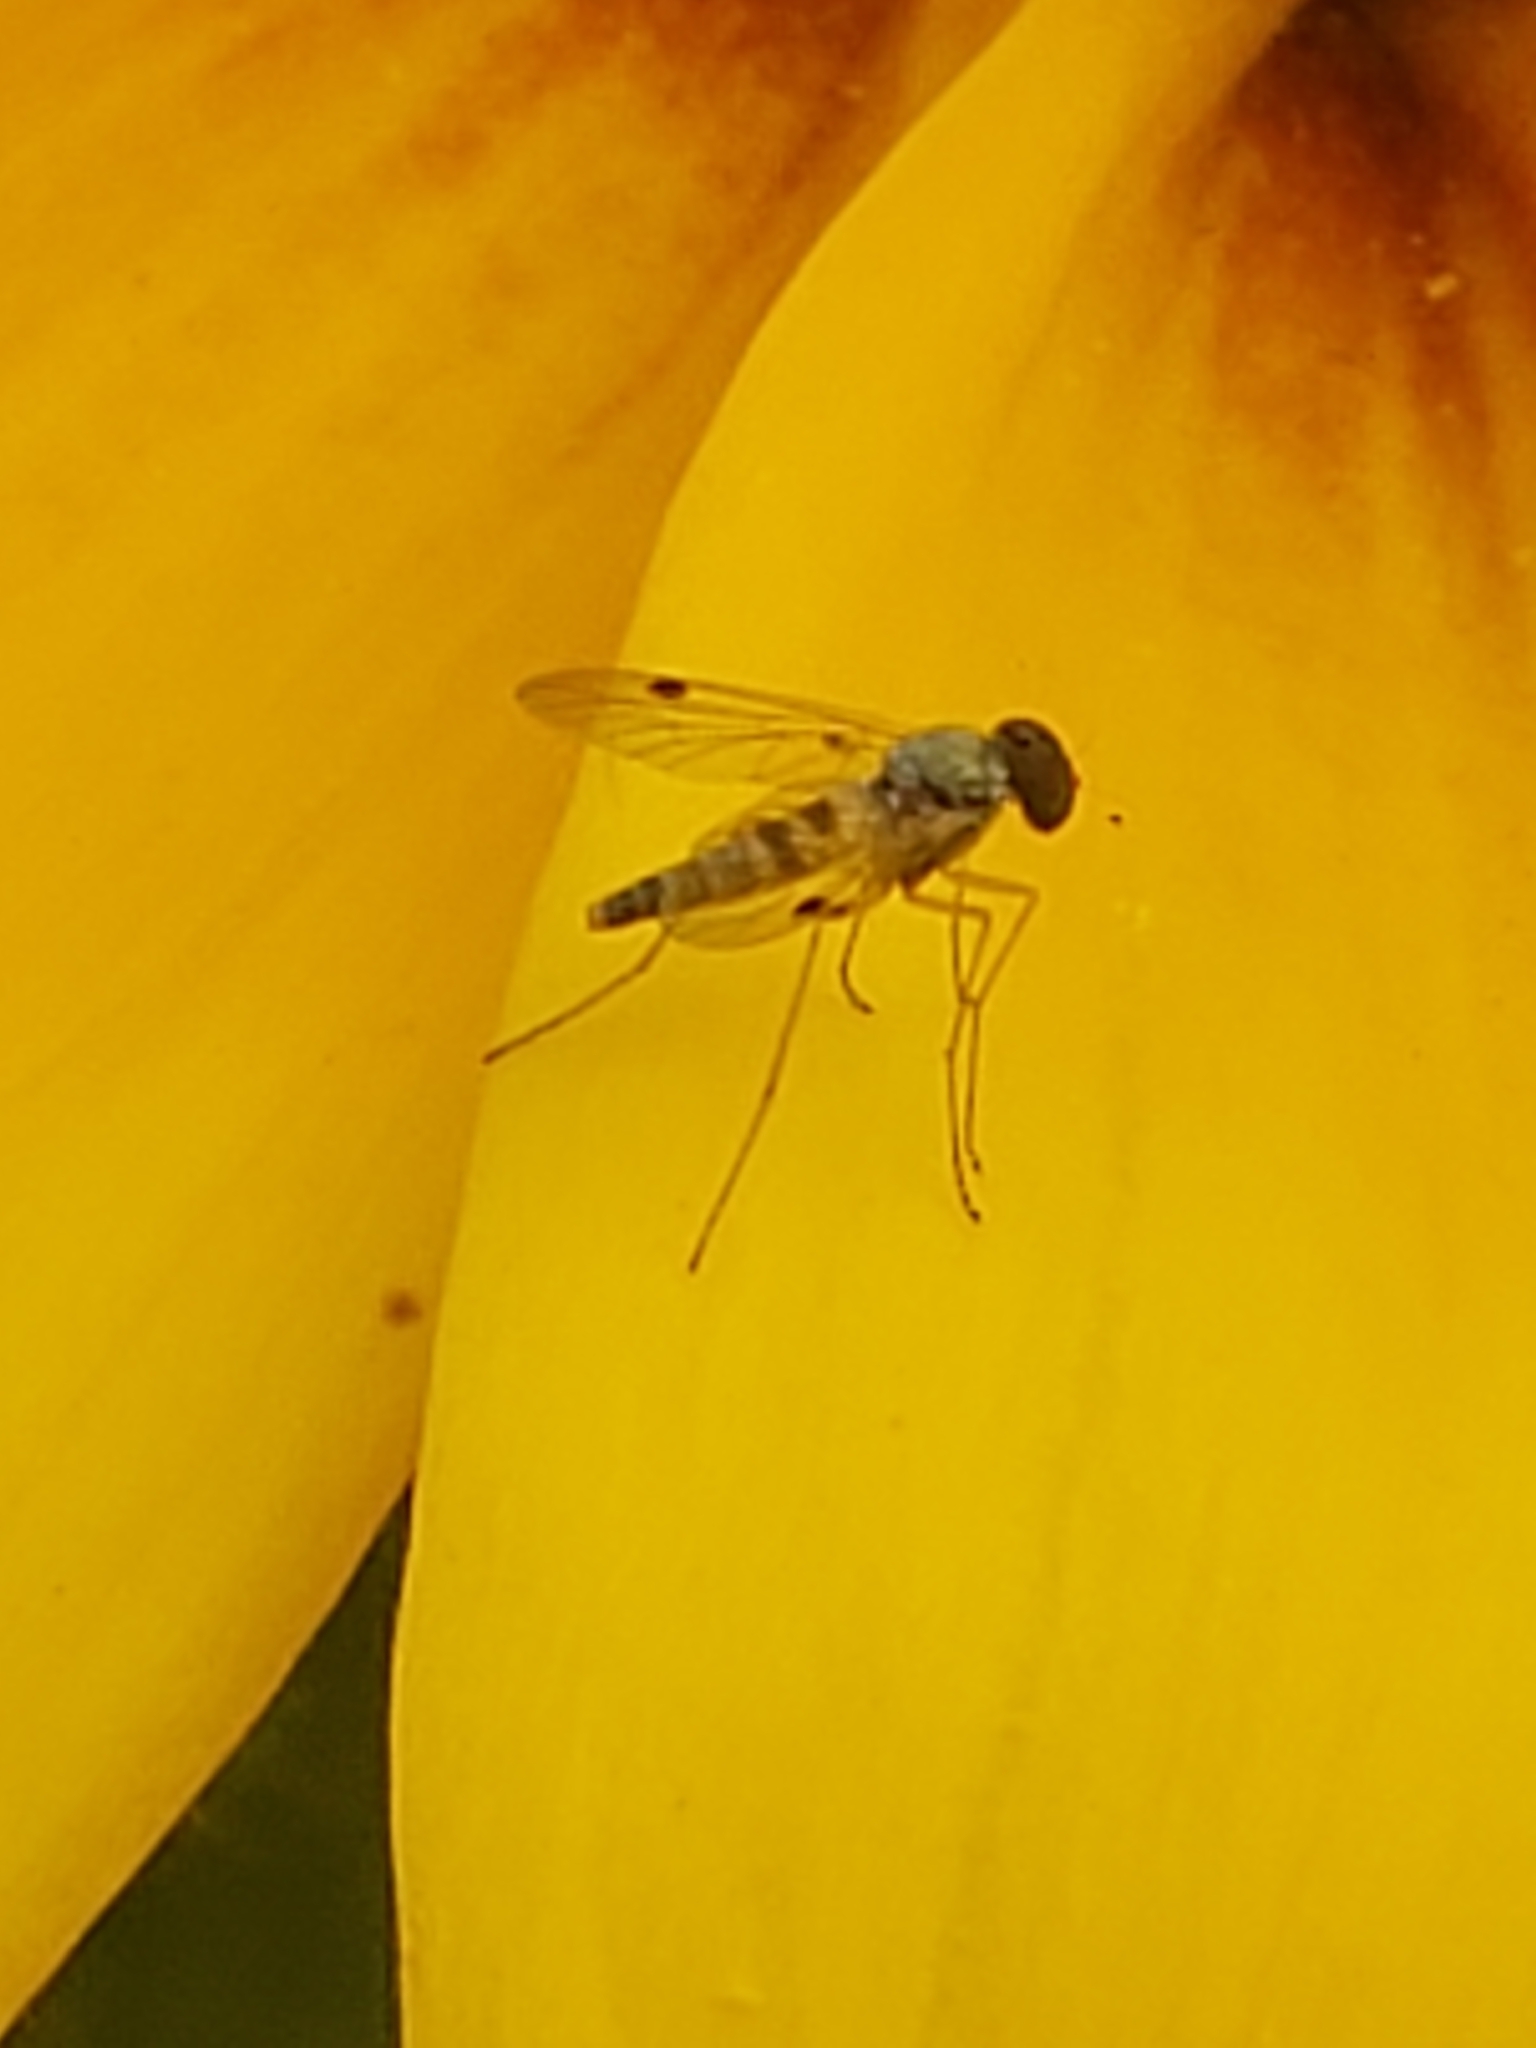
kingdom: Animalia
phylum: Arthropoda
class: Insecta
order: Diptera
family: Rhagionidae
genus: Chrysopilus
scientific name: Chrysopilus modestus
